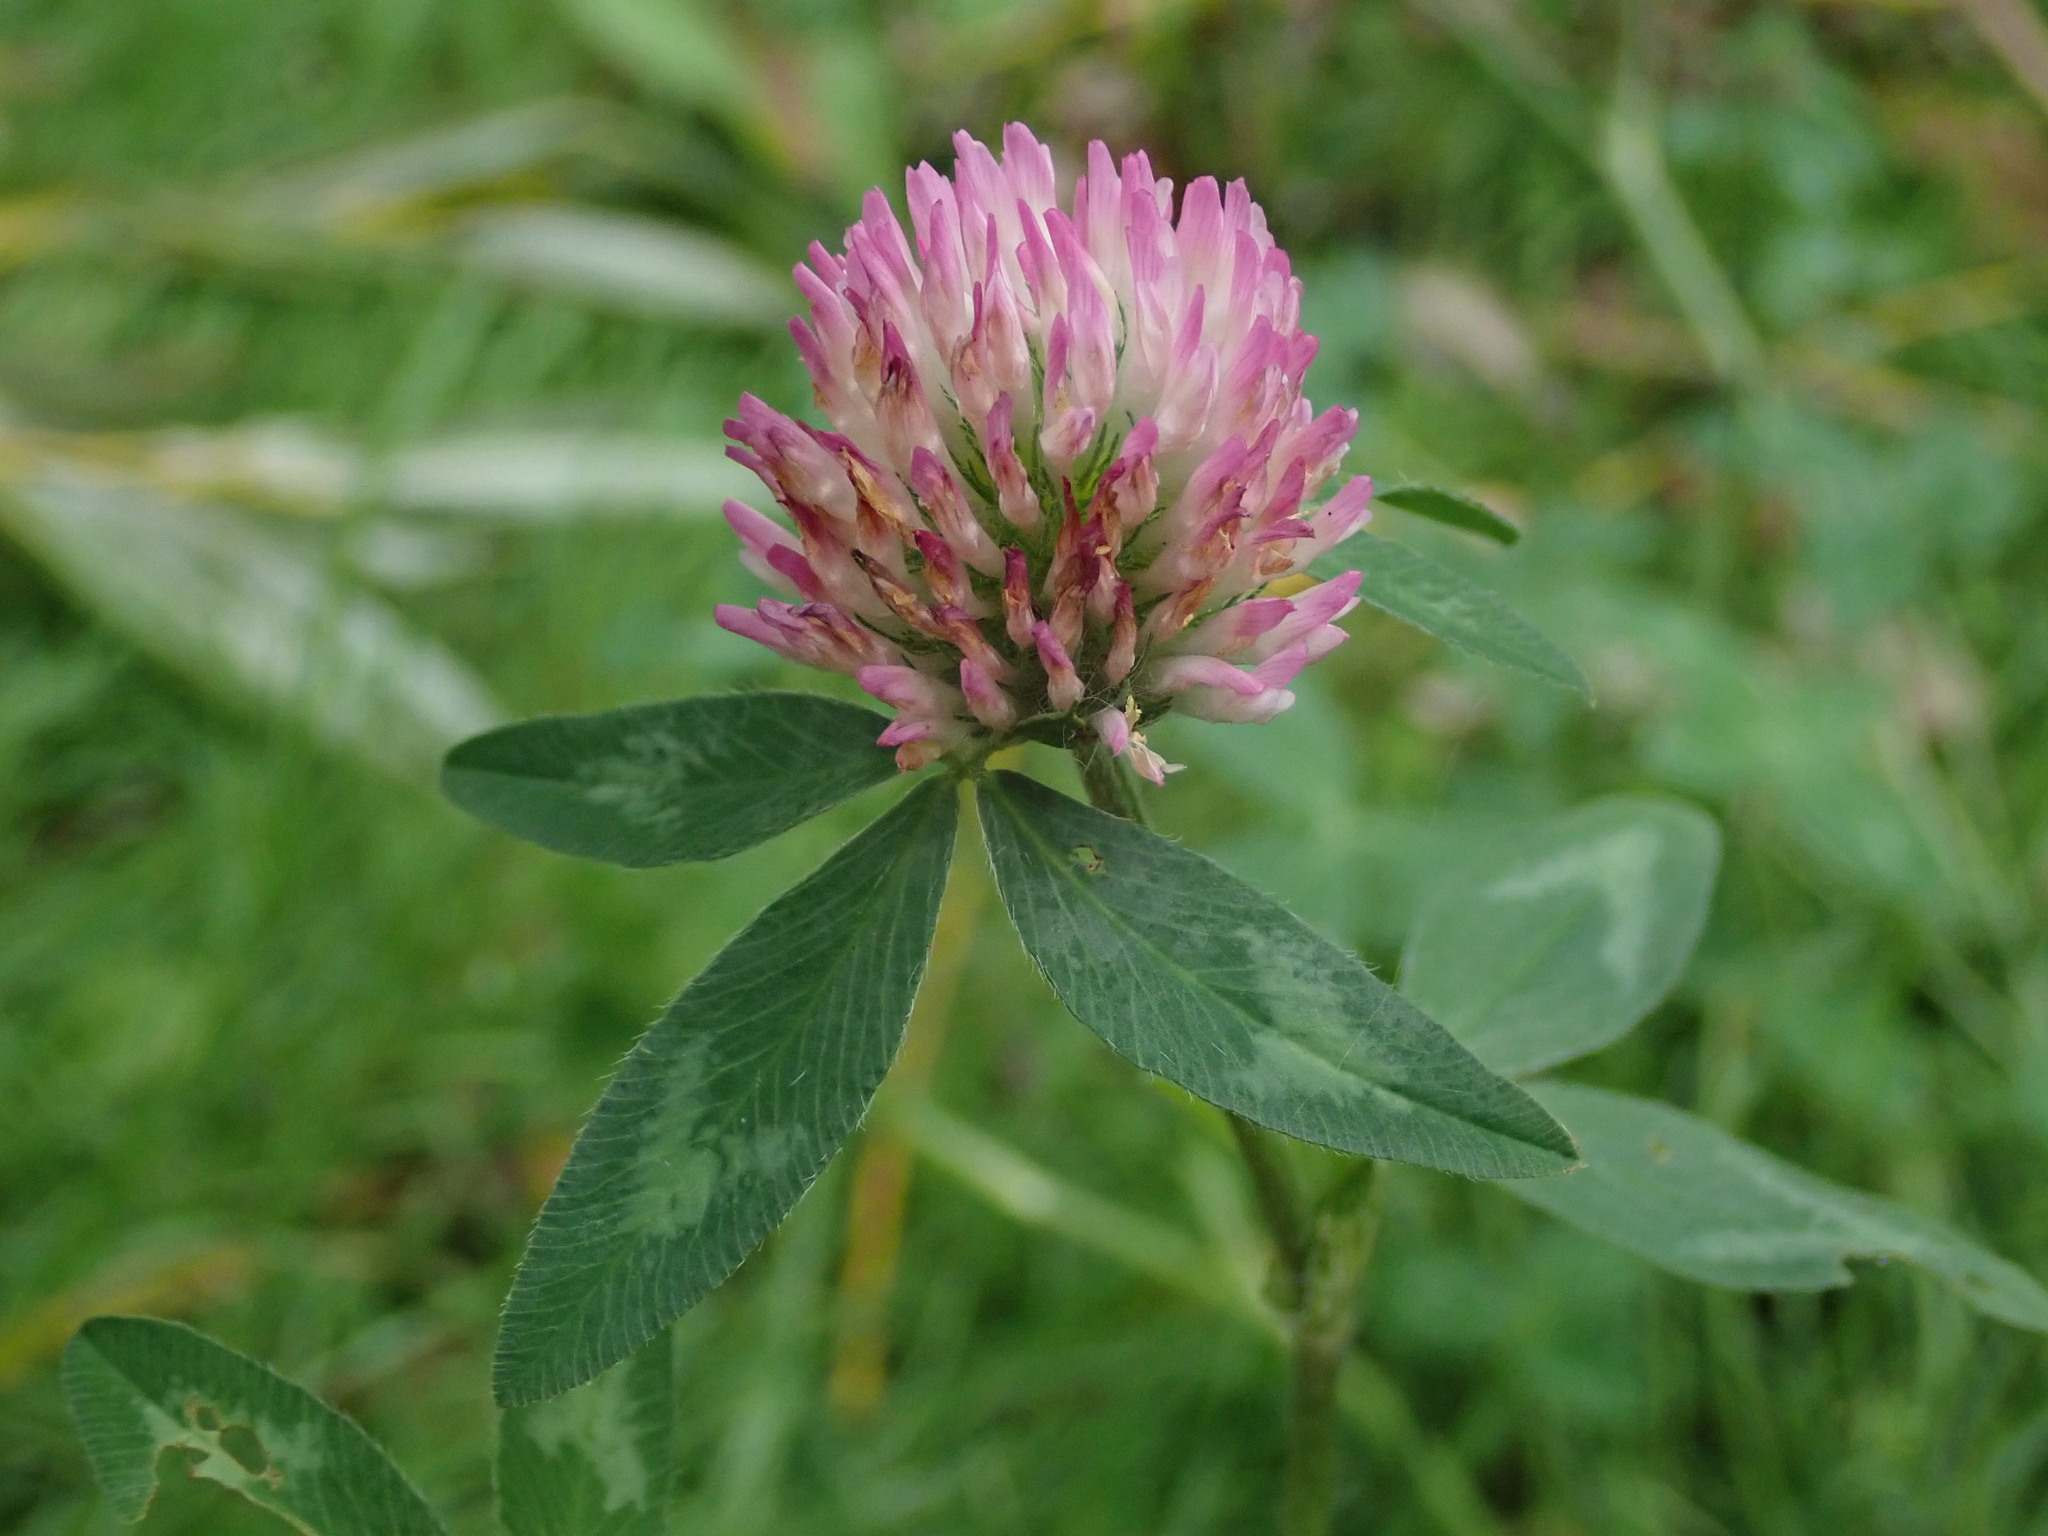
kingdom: Plantae
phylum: Tracheophyta
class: Magnoliopsida
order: Fabales
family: Fabaceae
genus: Trifolium
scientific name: Trifolium pratense
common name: Red clover
